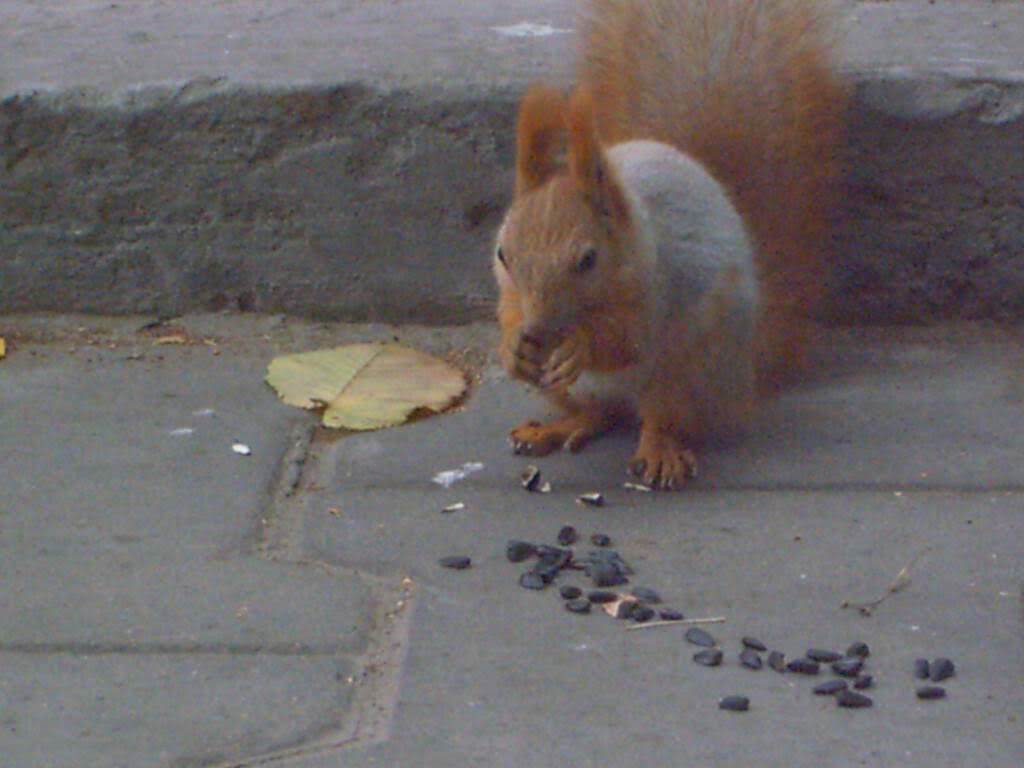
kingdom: Animalia
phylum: Chordata
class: Mammalia
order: Rodentia
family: Sciuridae
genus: Sciurus
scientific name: Sciurus vulgaris
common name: Eurasian red squirrel
